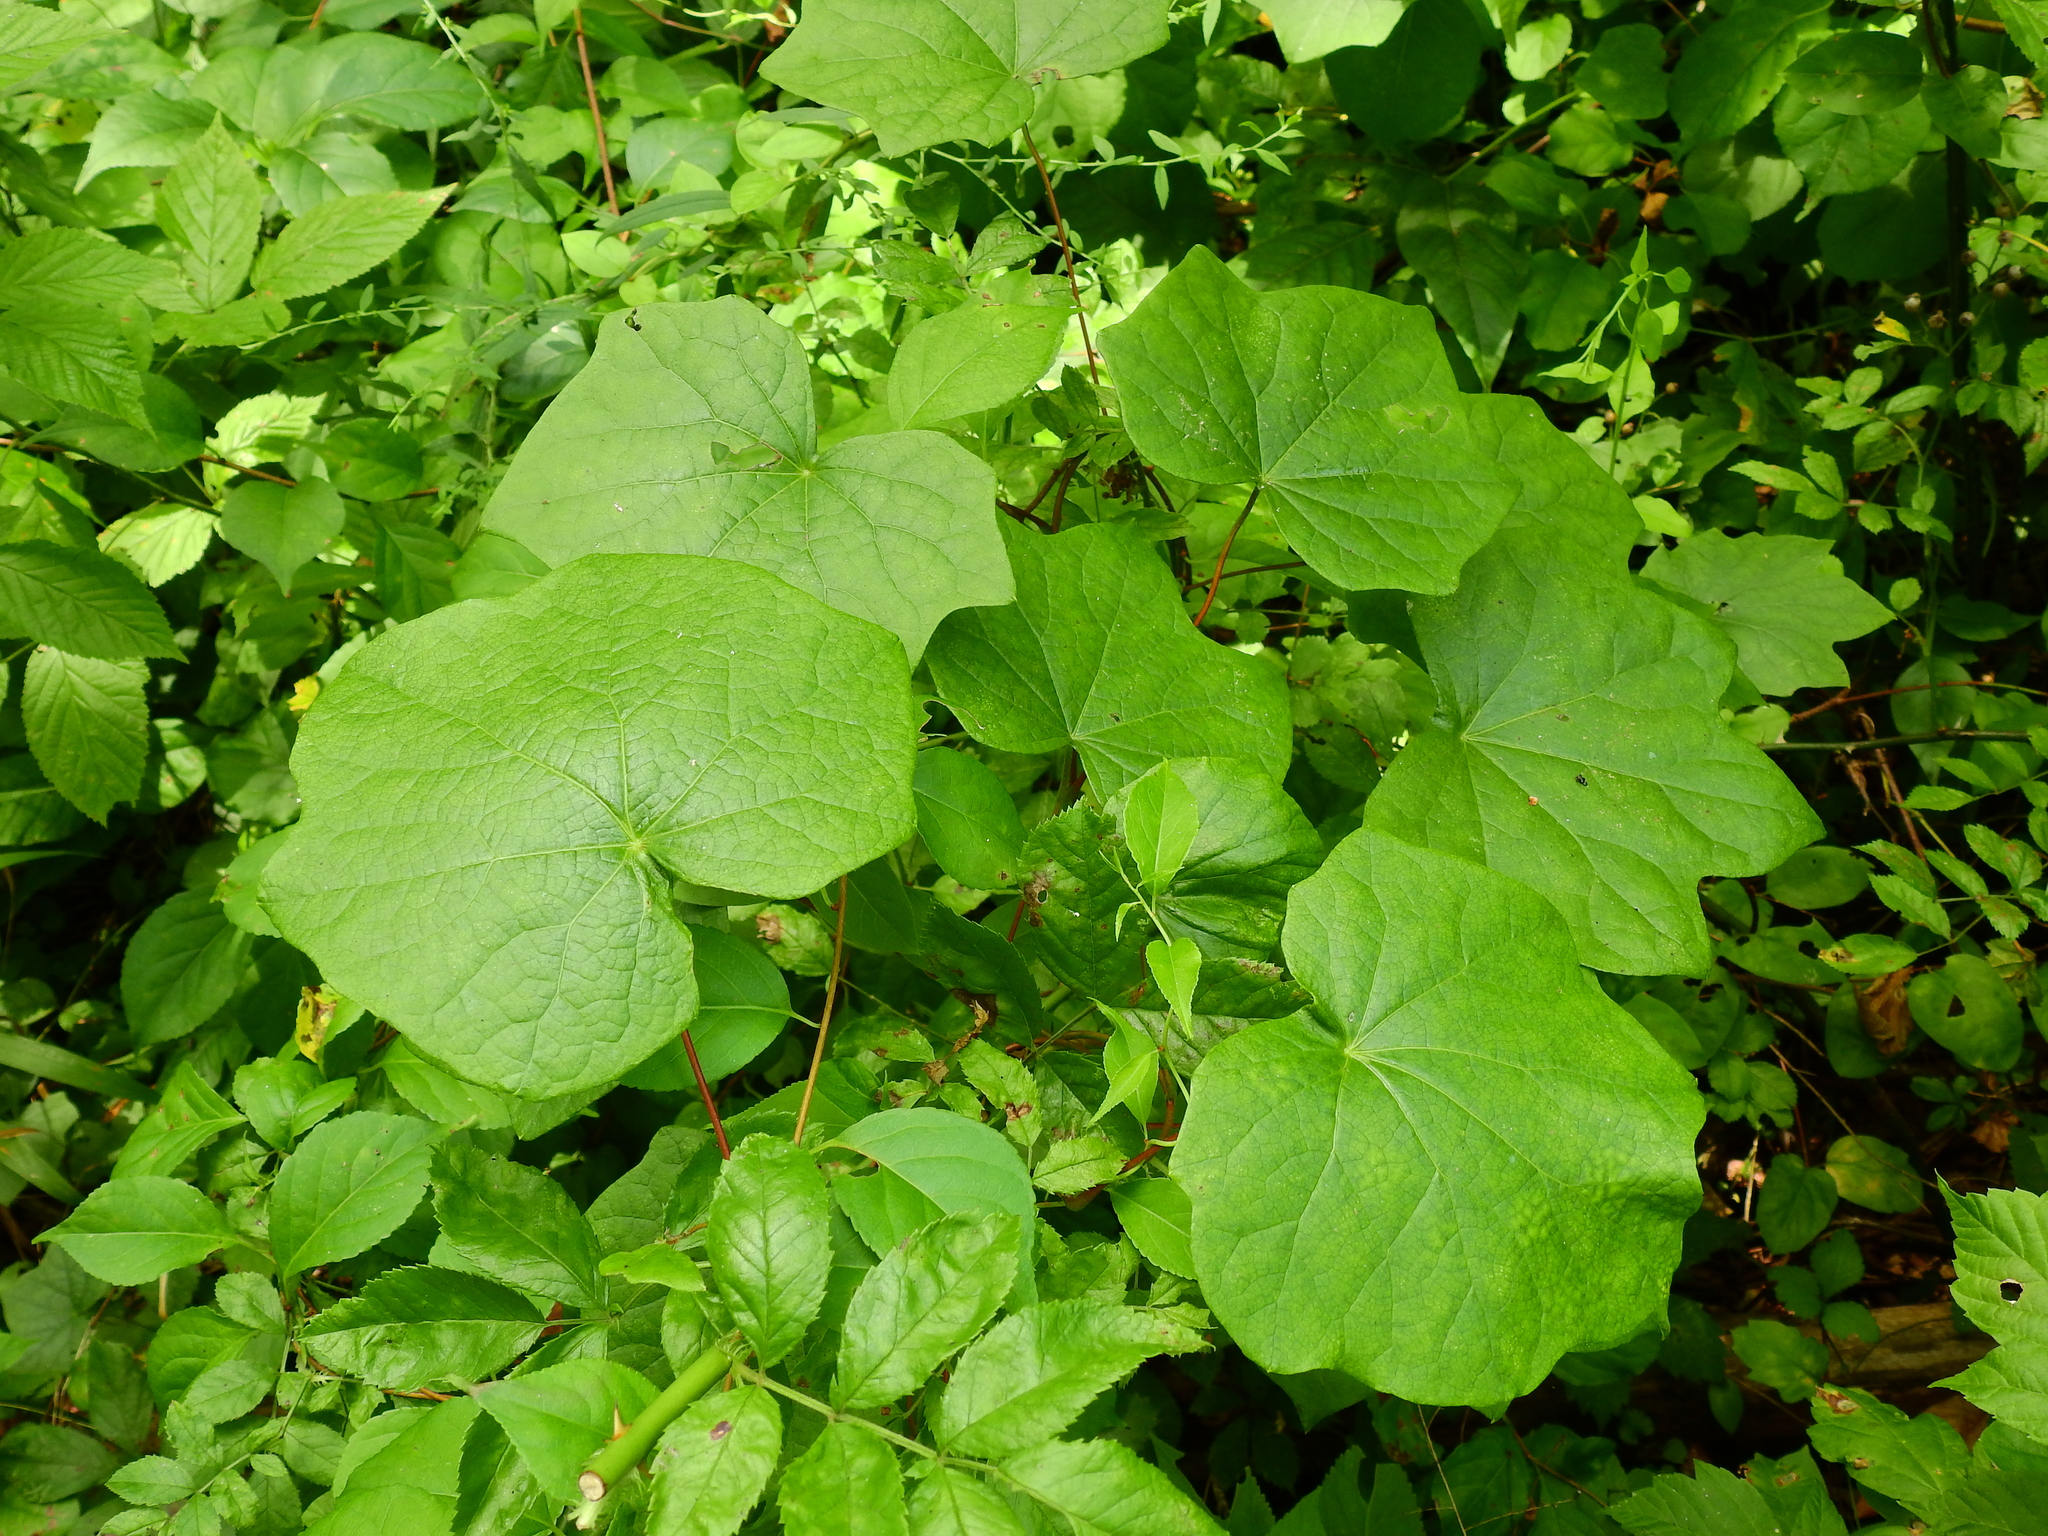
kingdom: Plantae
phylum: Tracheophyta
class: Magnoliopsida
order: Ranunculales
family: Menispermaceae
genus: Menispermum
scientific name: Menispermum canadense
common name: Moonseed
